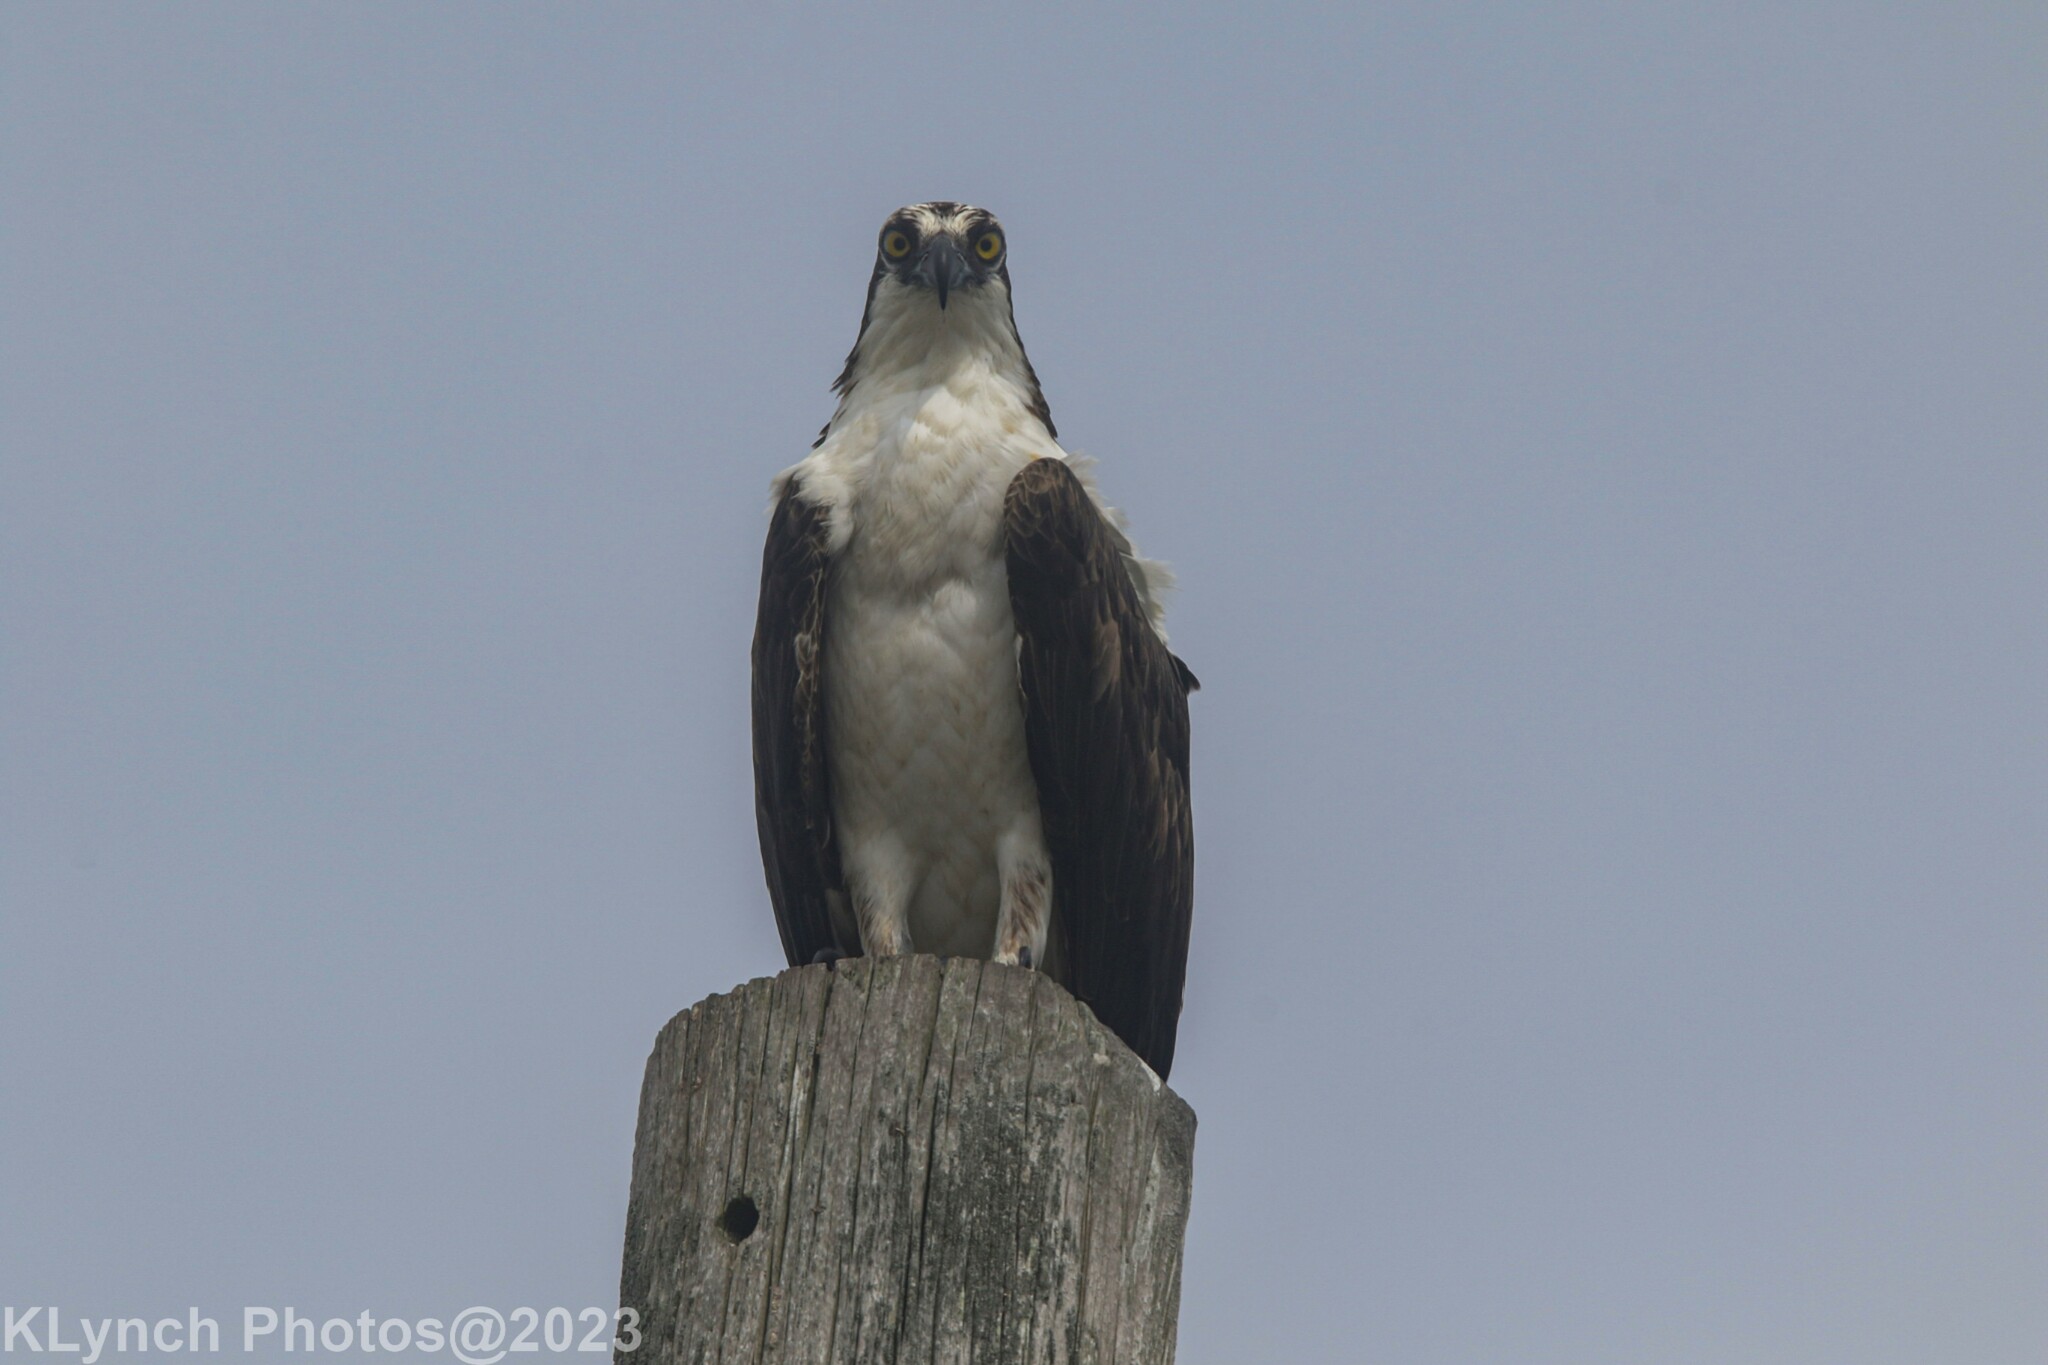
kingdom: Animalia
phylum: Chordata
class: Aves
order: Accipitriformes
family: Pandionidae
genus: Pandion
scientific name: Pandion haliaetus
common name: Osprey
